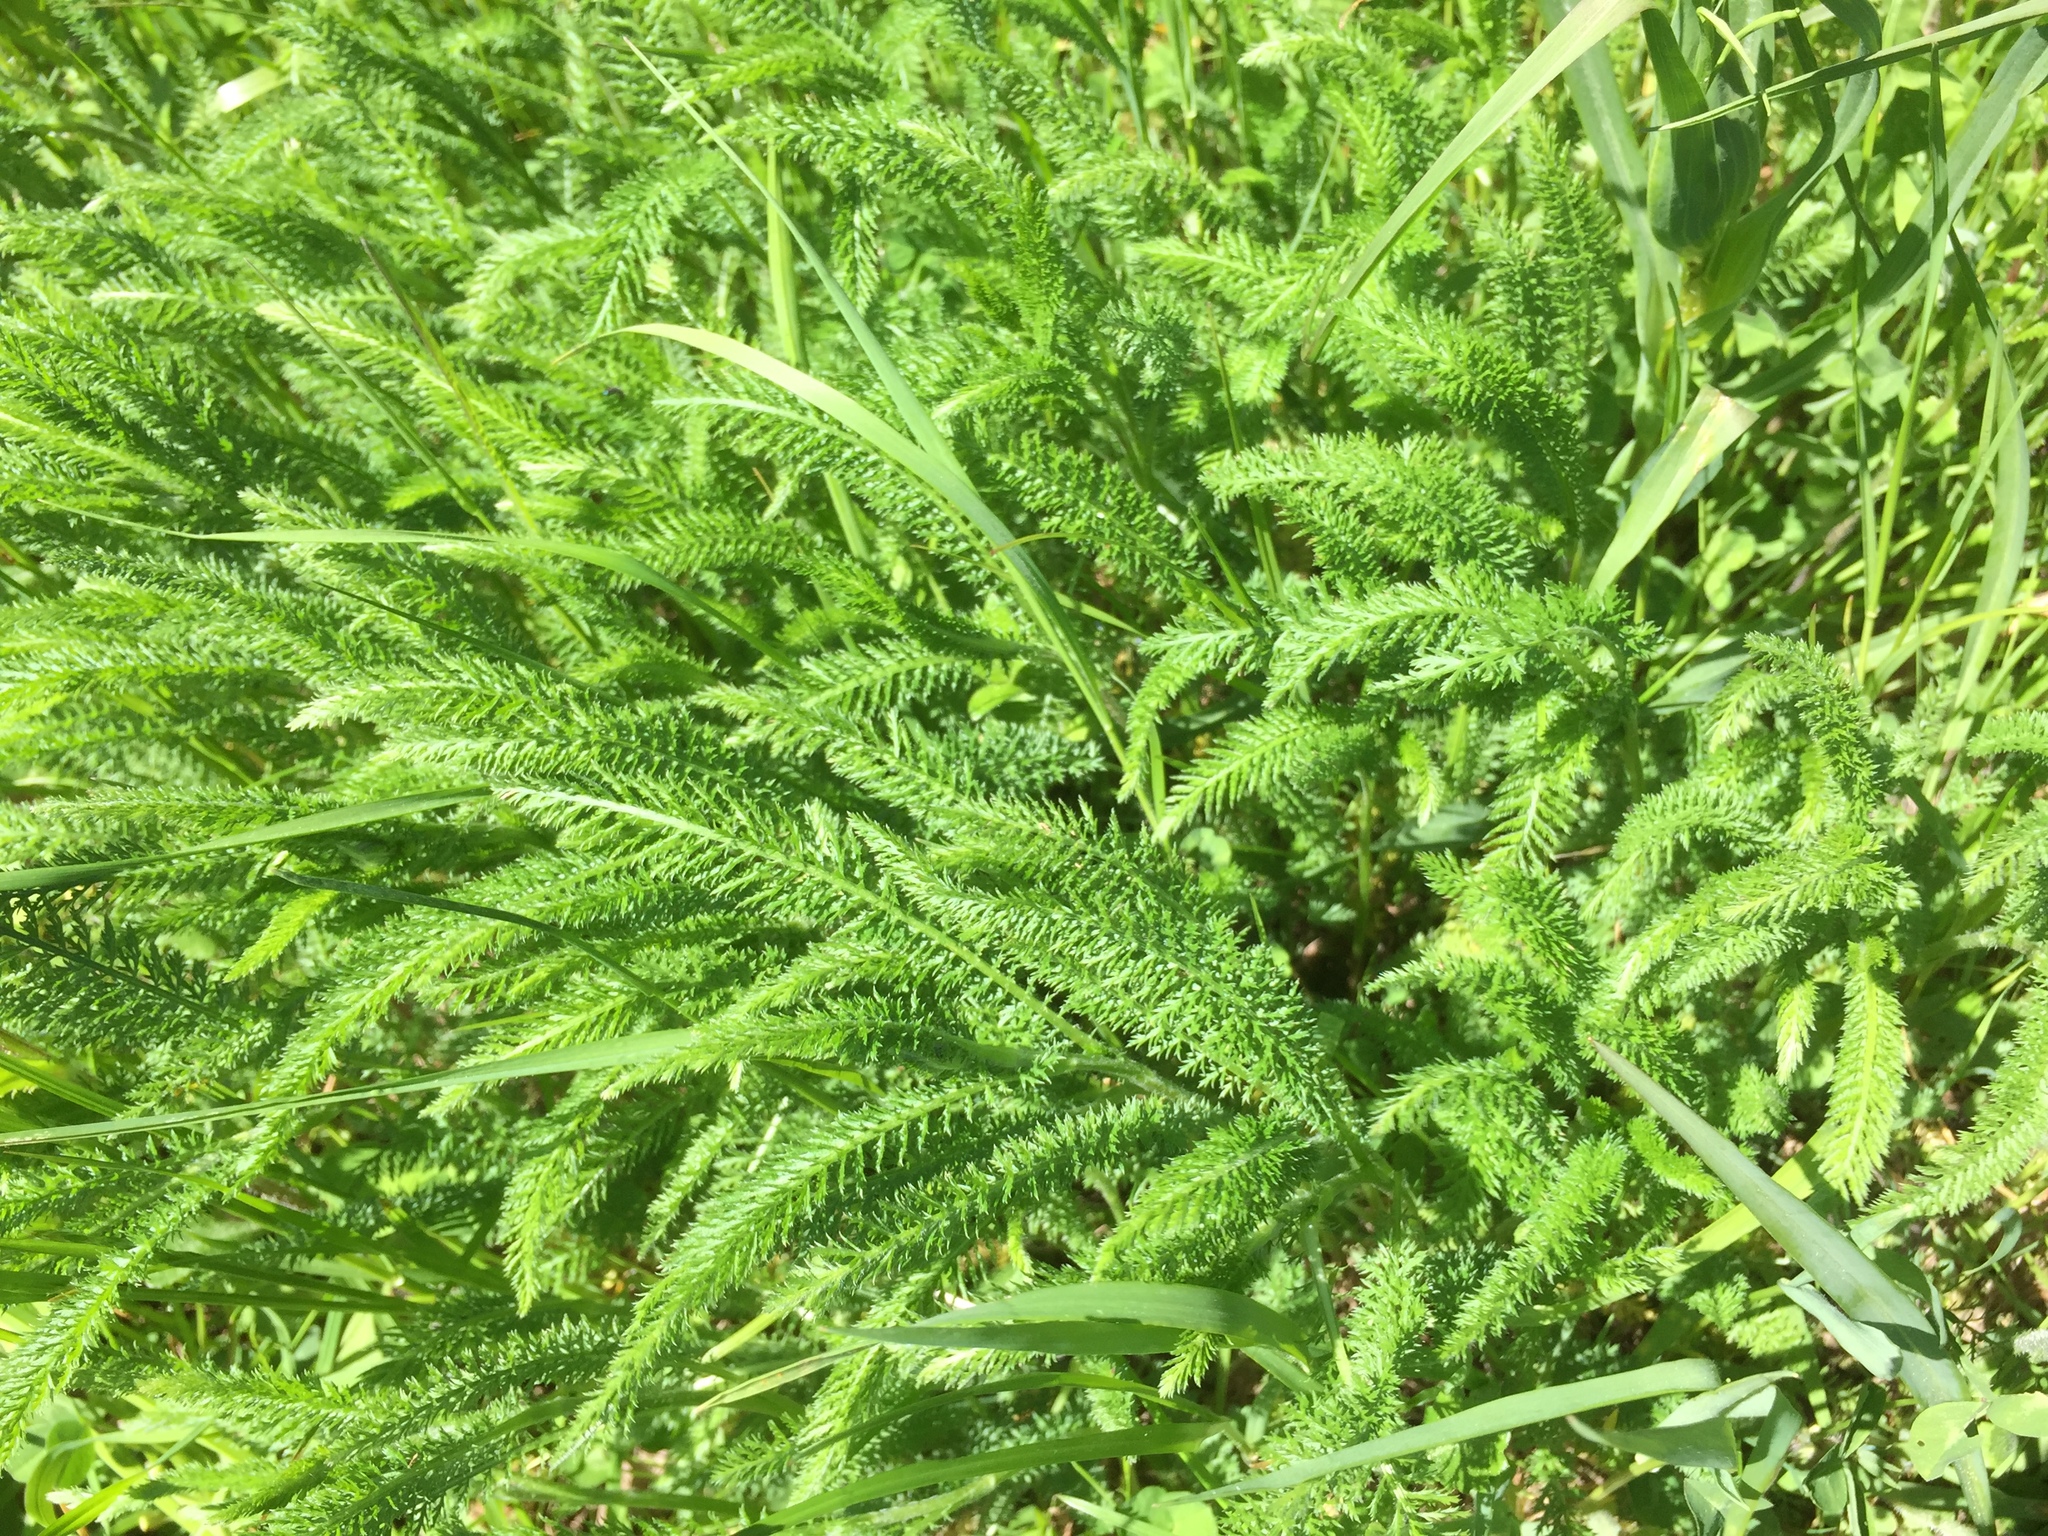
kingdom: Plantae
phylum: Tracheophyta
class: Magnoliopsida
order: Asterales
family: Asteraceae
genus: Achillea
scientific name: Achillea millefolium
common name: Yarrow
